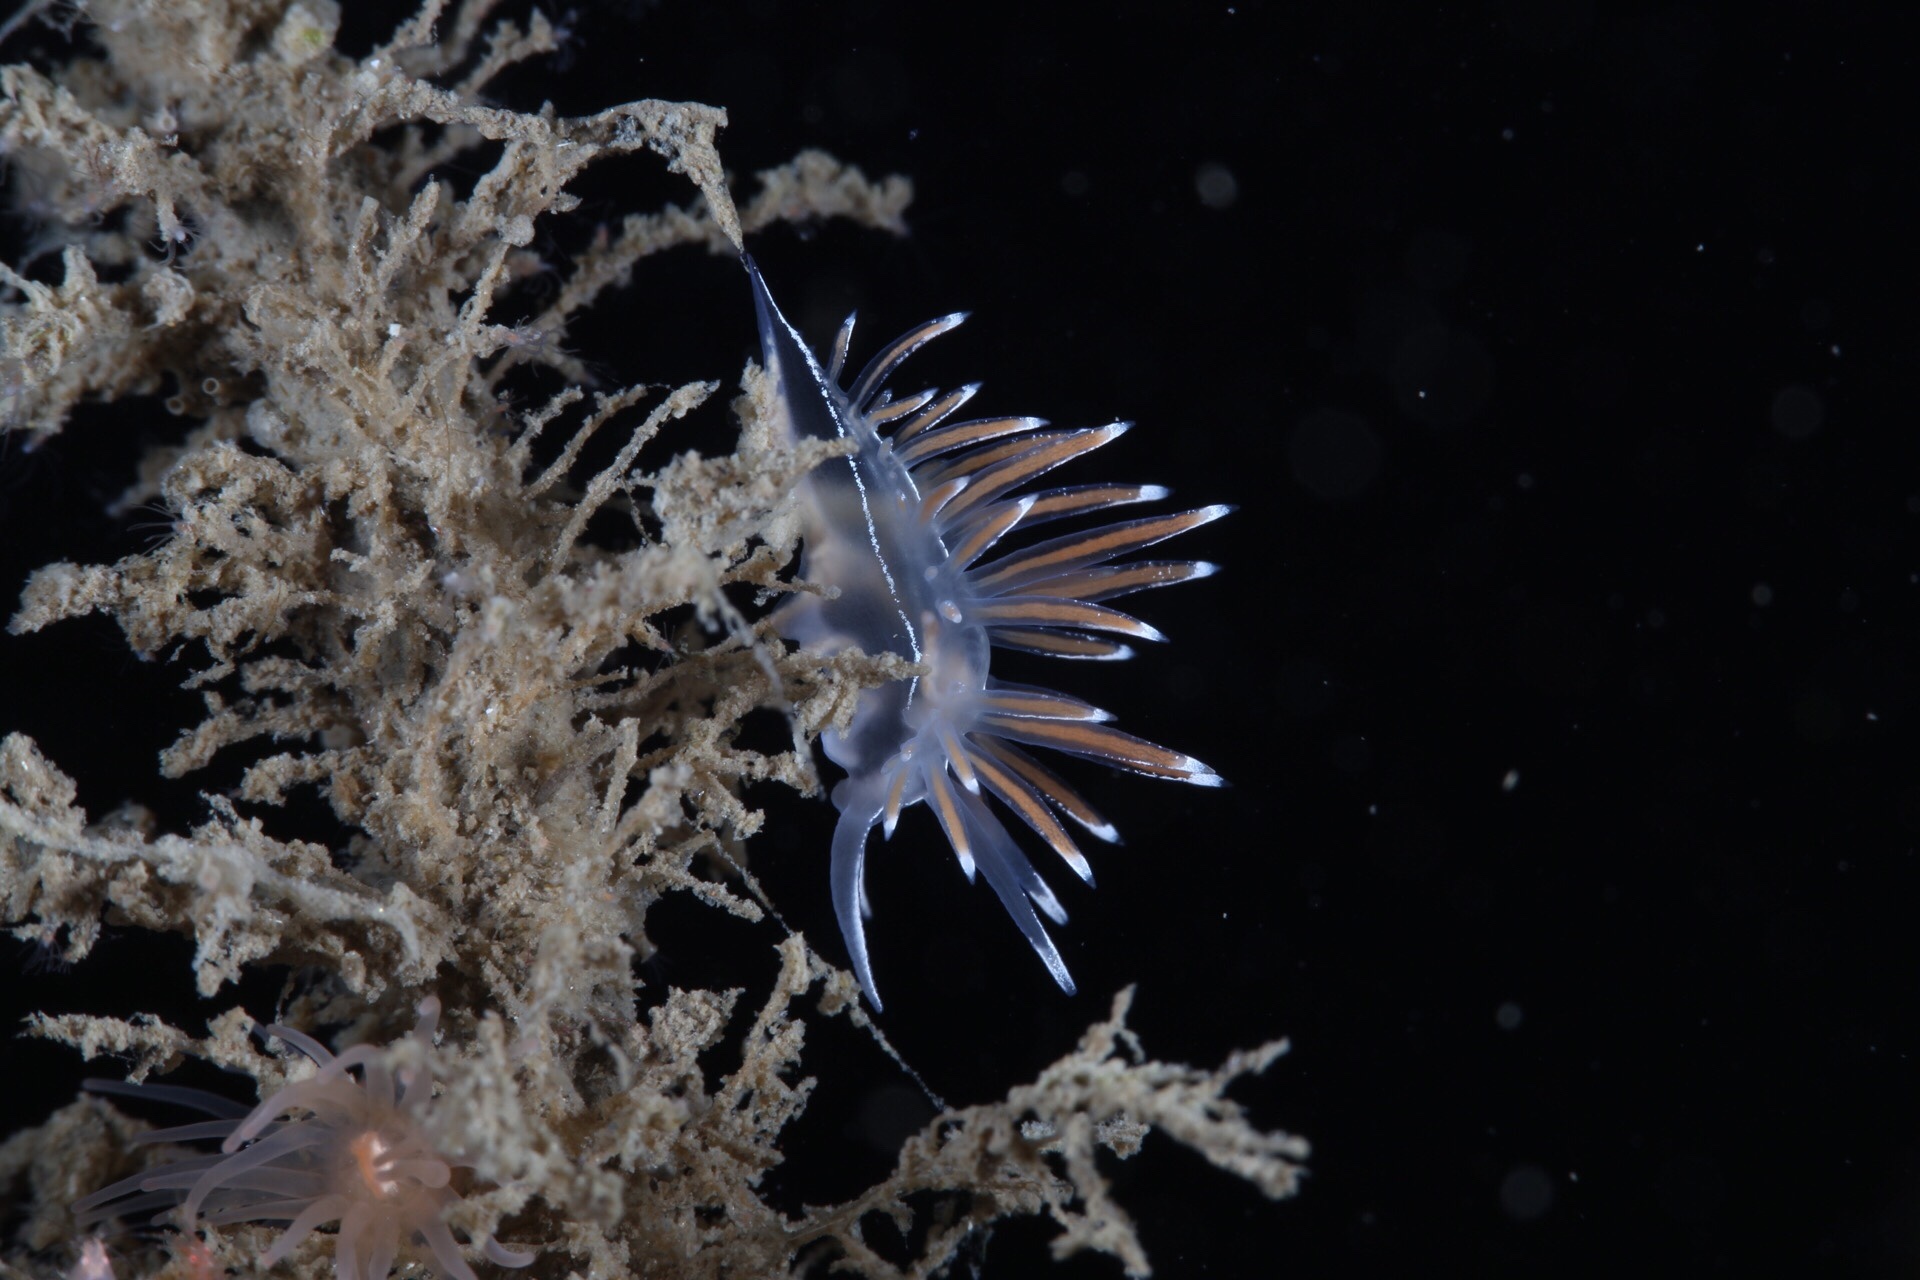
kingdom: Animalia
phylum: Mollusca
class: Gastropoda
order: Nudibranchia
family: Coryphellidae
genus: Coryphella
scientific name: Coryphella lineata
